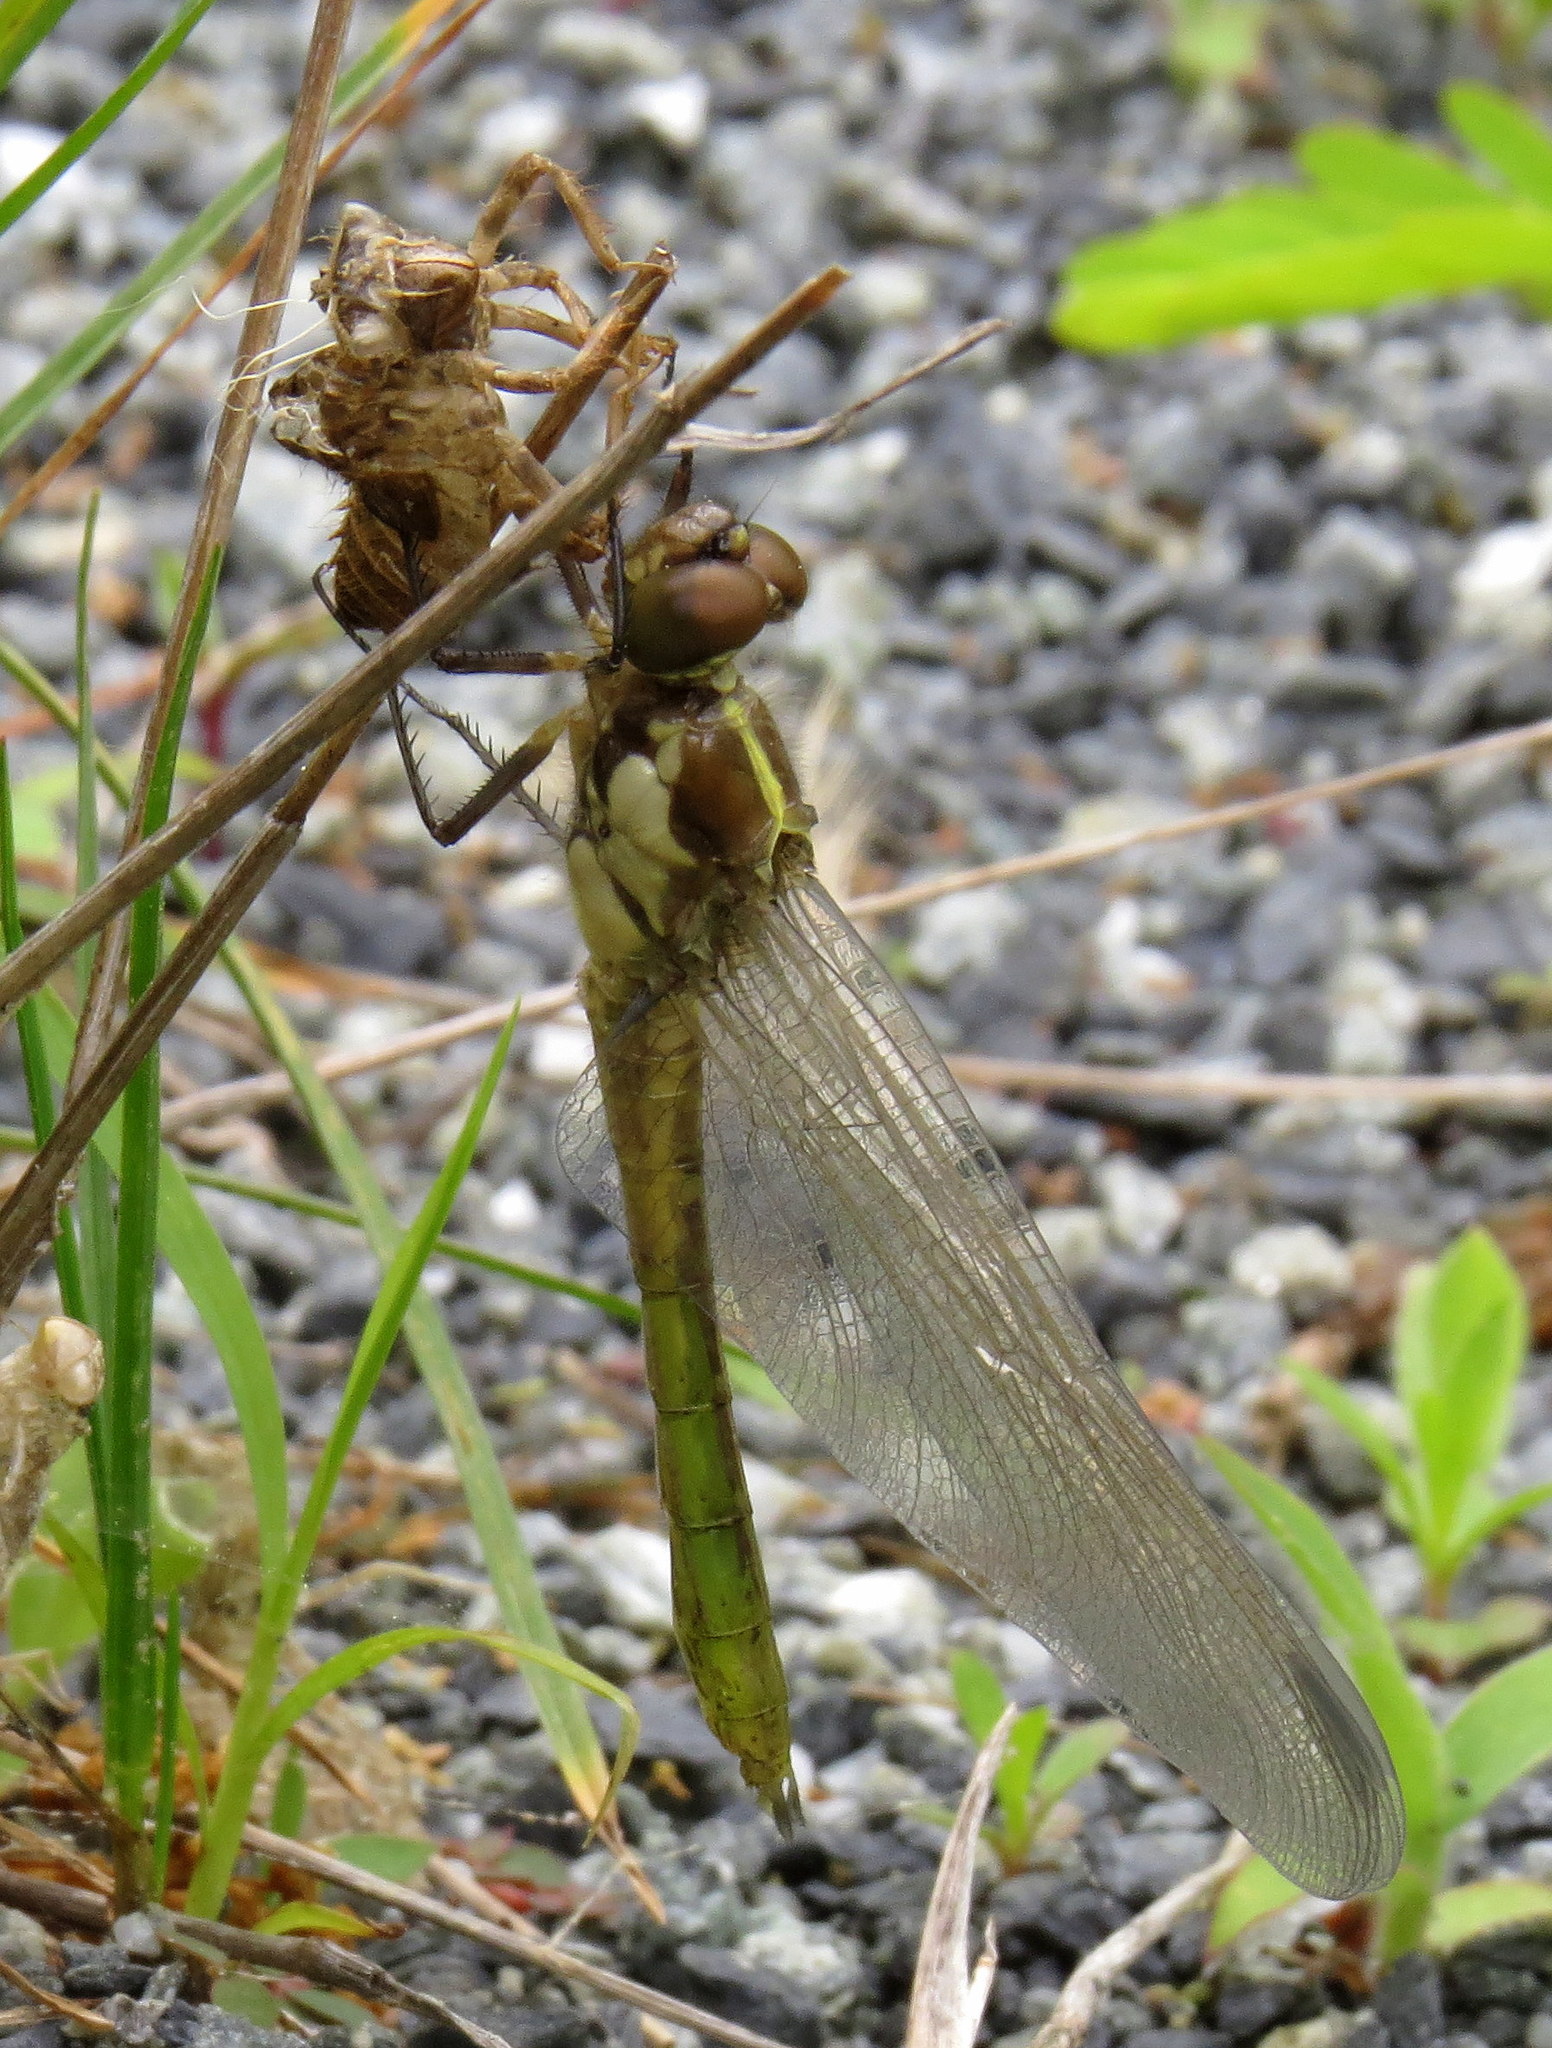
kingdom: Animalia
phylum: Arthropoda
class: Insecta
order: Odonata
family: Libellulidae
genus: Libellula
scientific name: Libellula incesta
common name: Slaty skimmer
